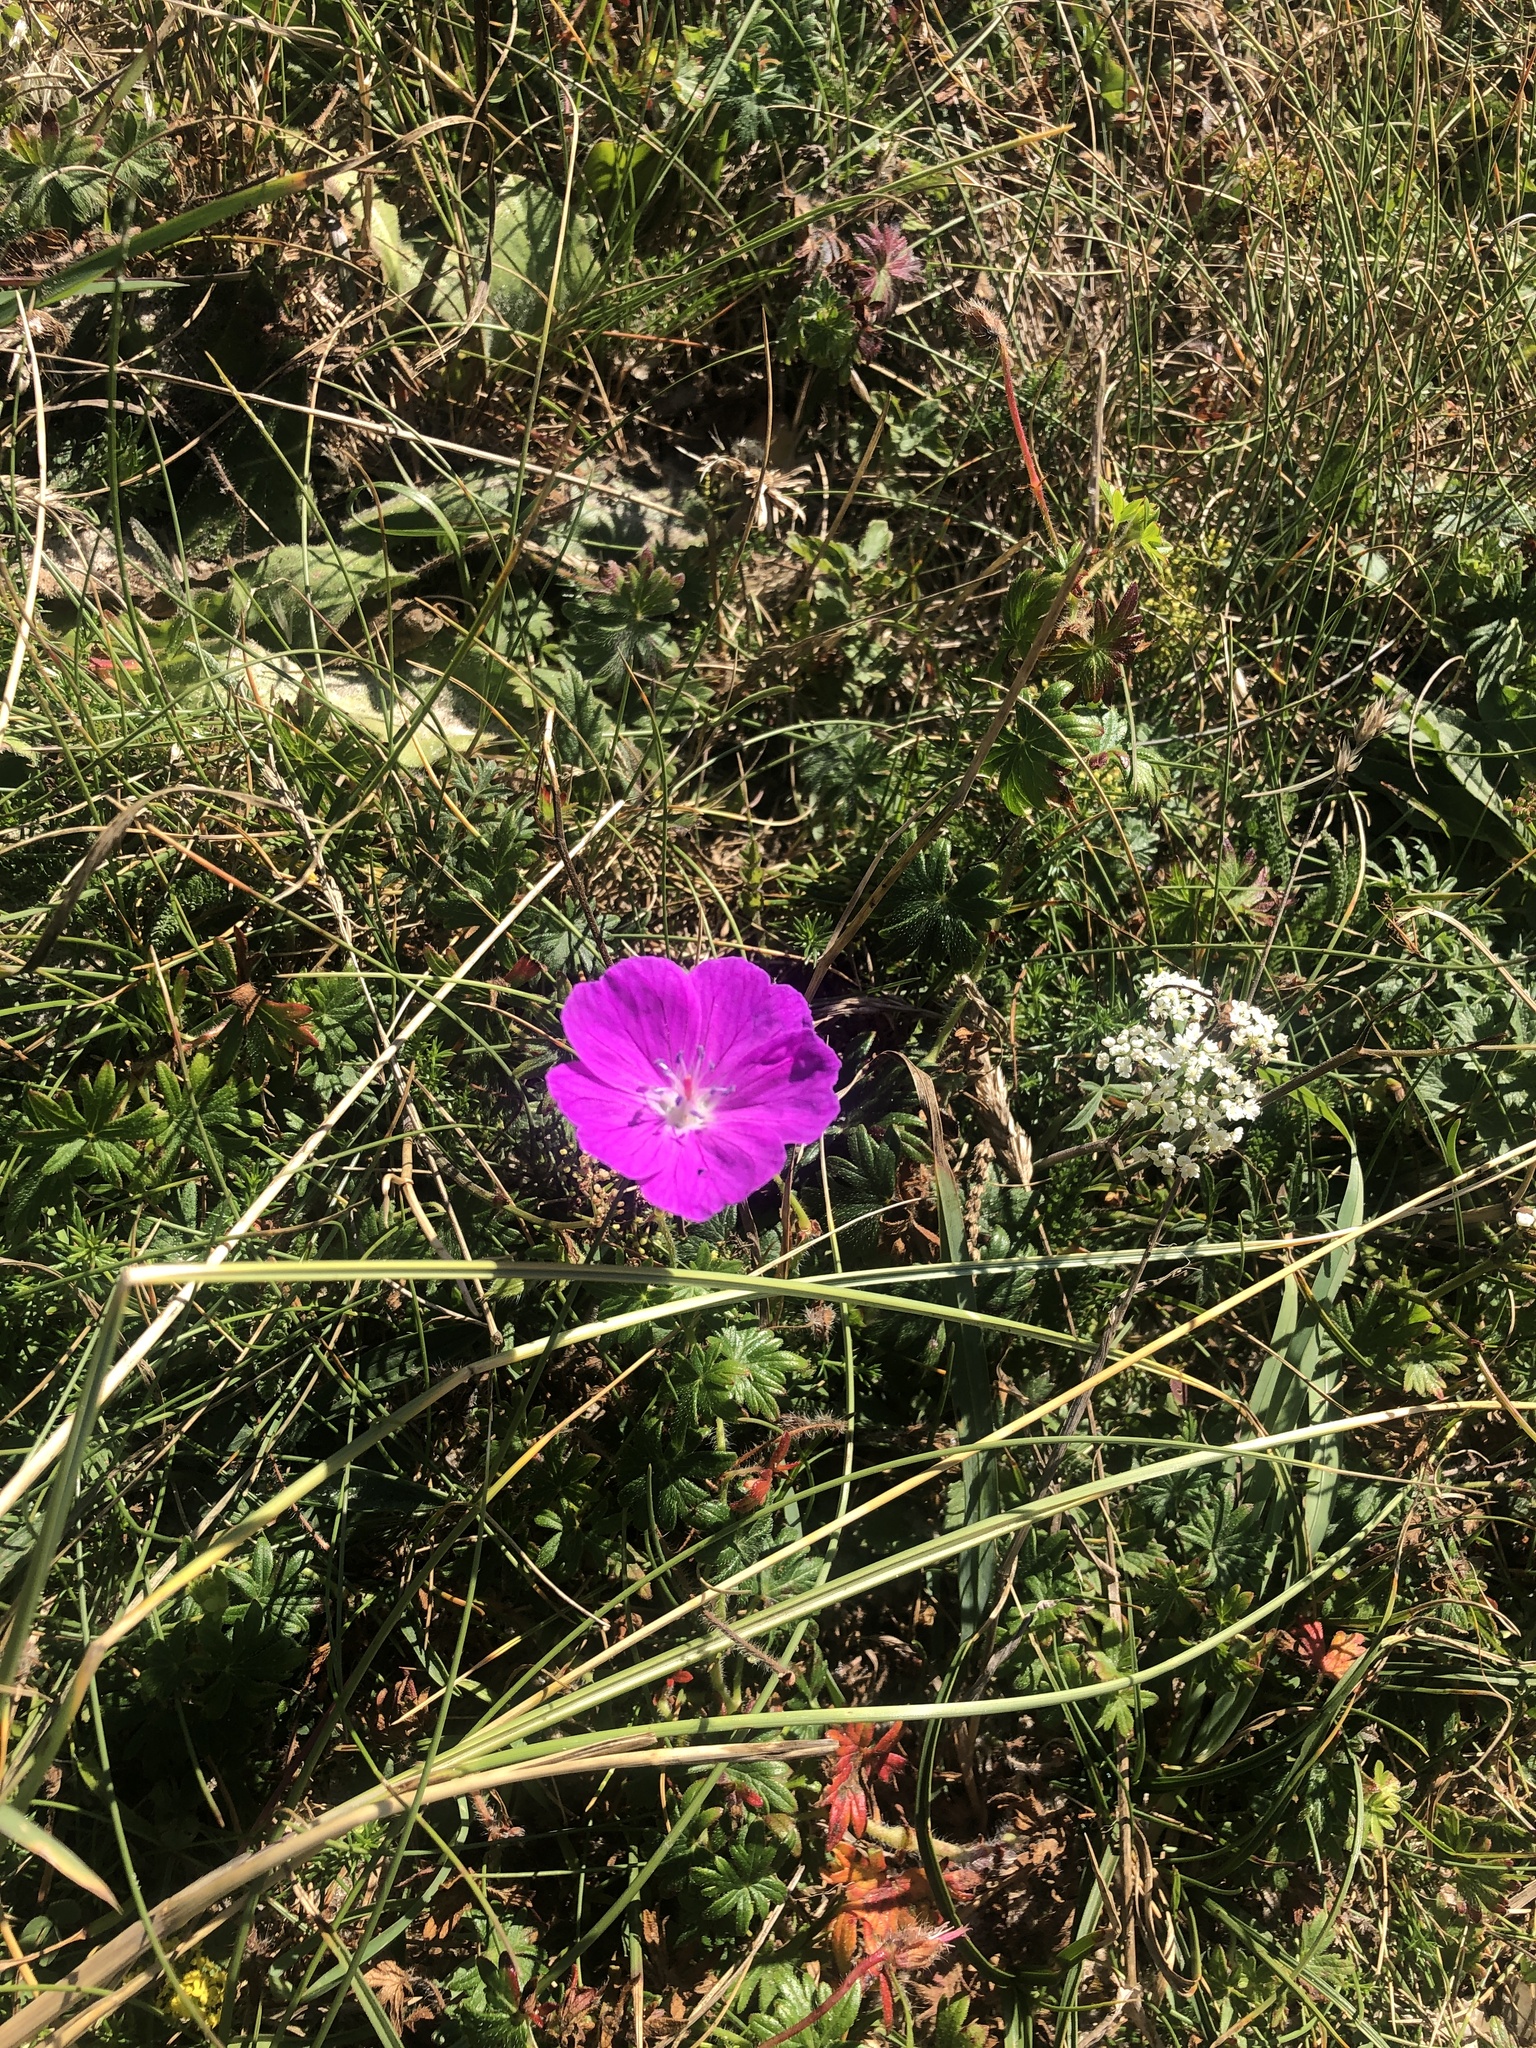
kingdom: Plantae
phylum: Tracheophyta
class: Magnoliopsida
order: Geraniales
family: Geraniaceae
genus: Geranium
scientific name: Geranium sanguineum
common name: Bloody crane's-bill
